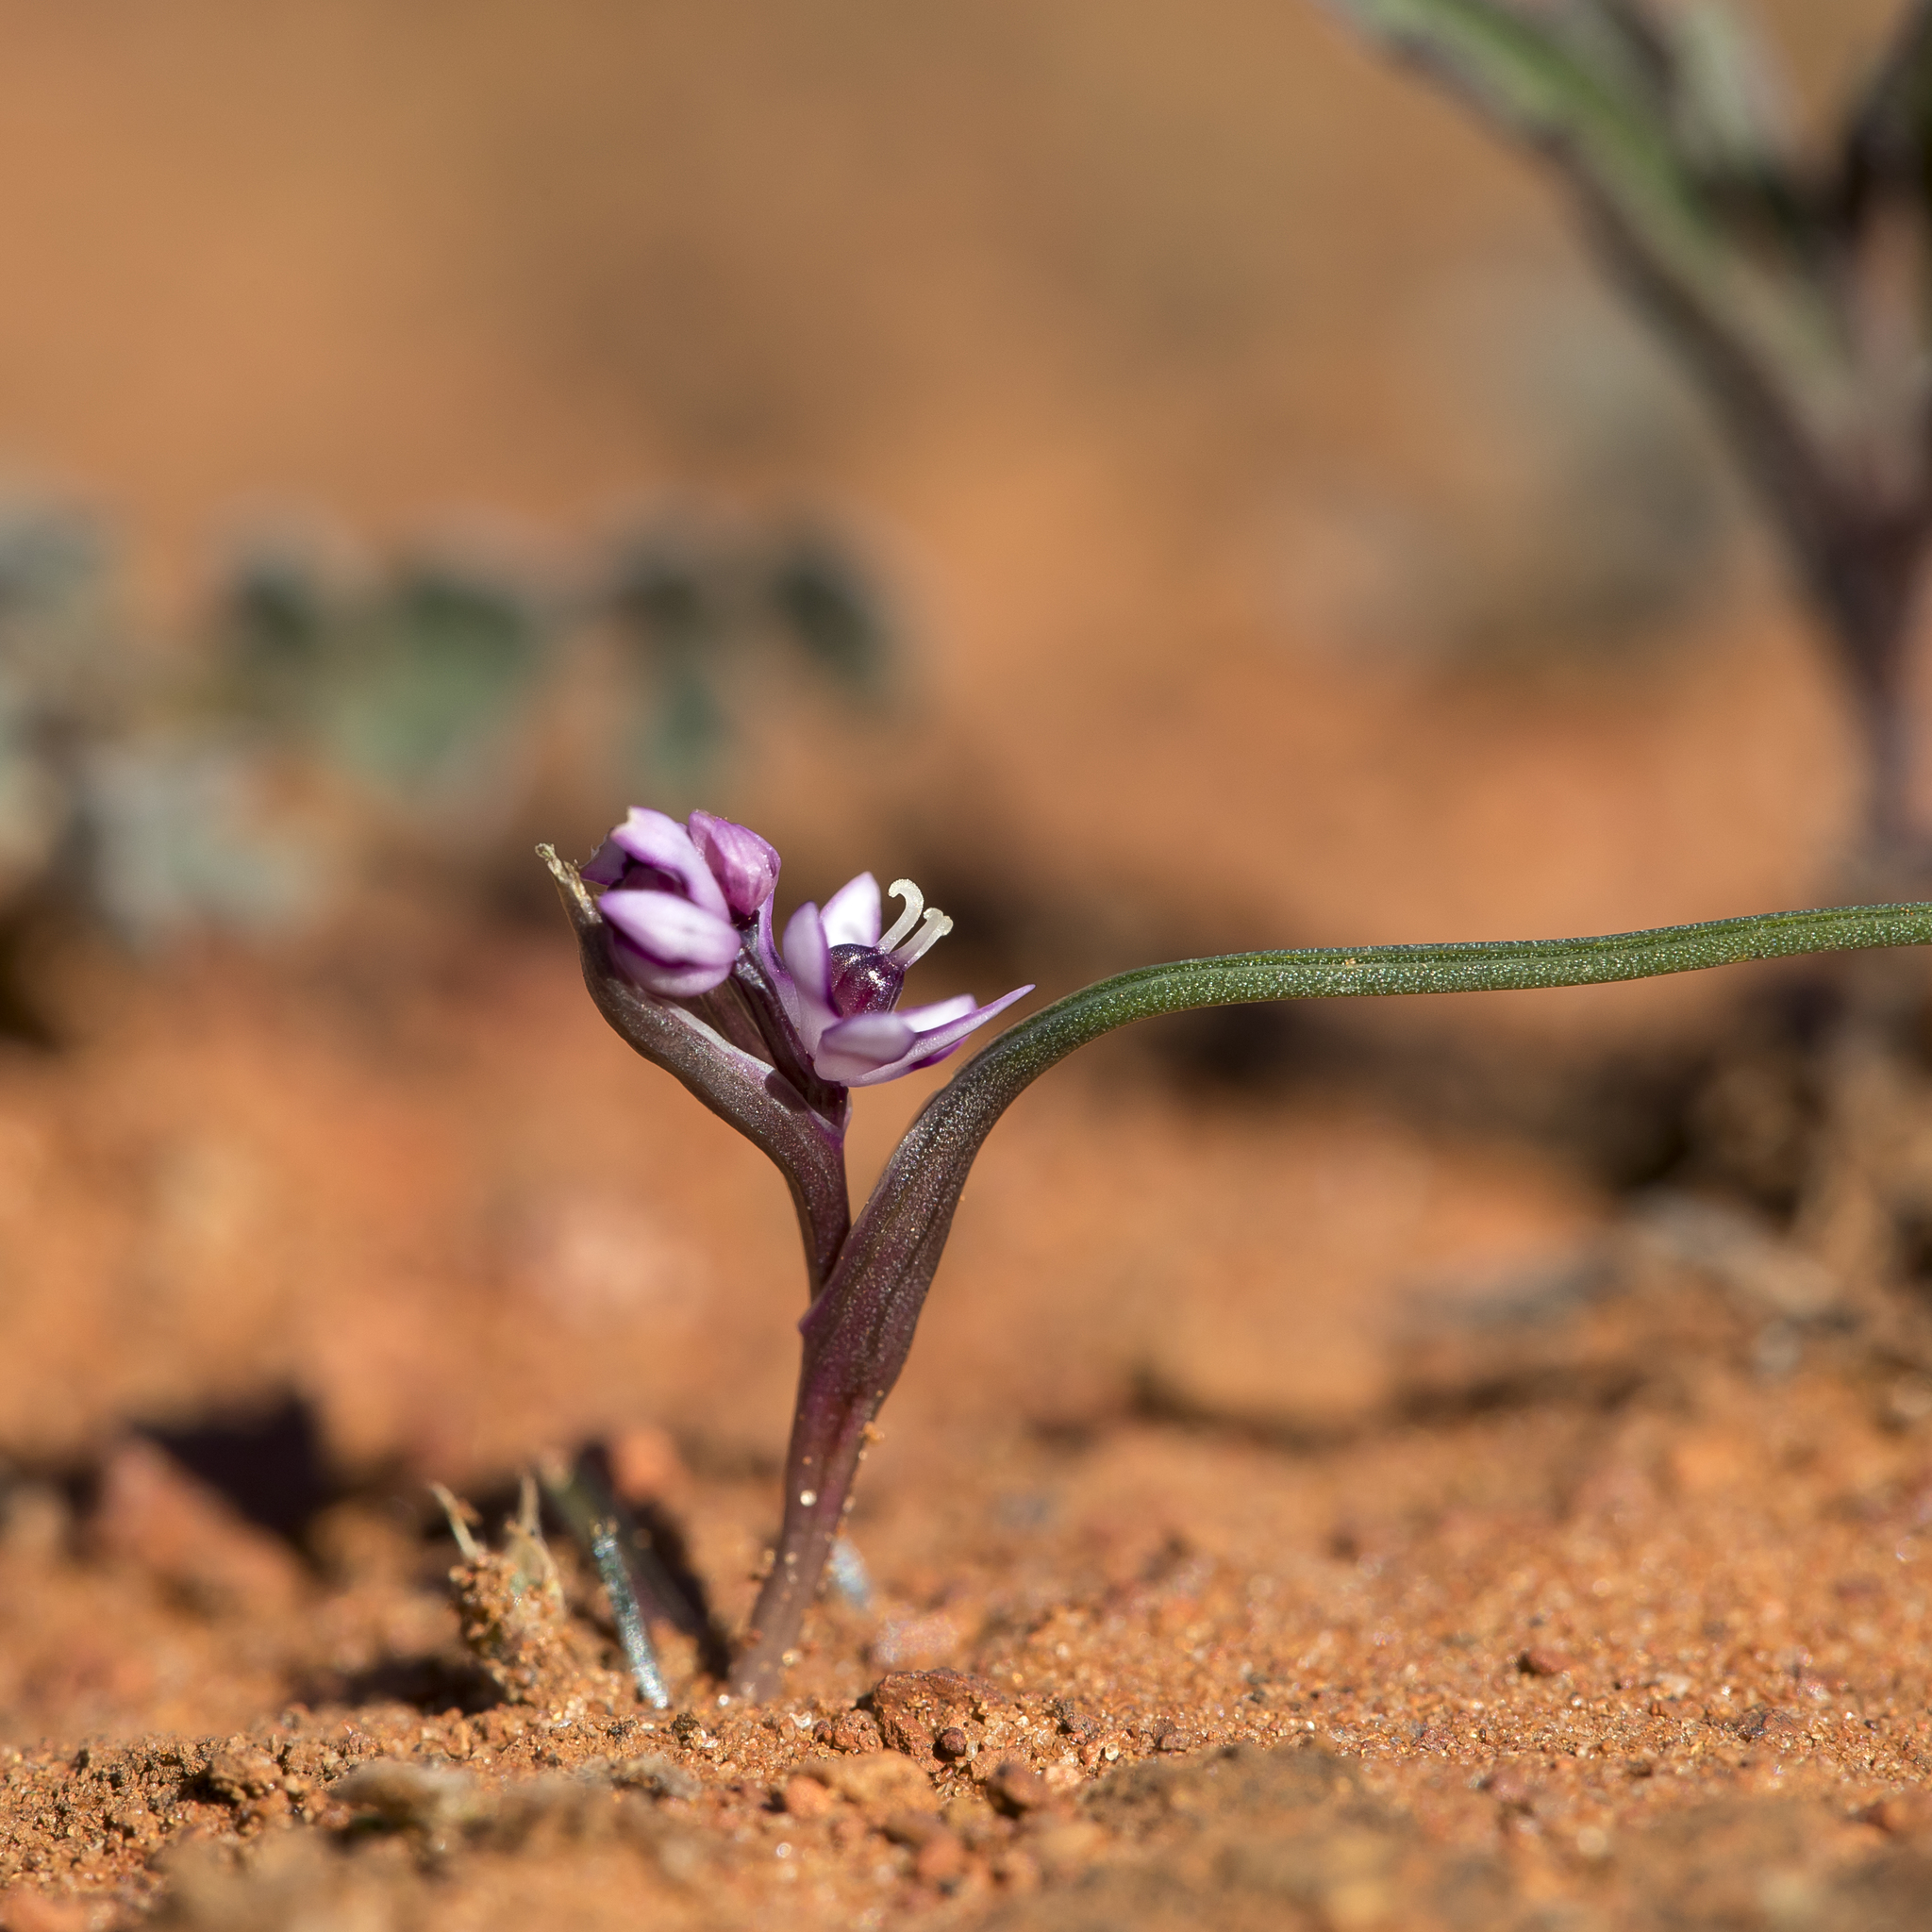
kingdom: Plantae
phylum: Tracheophyta
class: Liliopsida
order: Liliales
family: Colchicaceae
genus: Wurmbea
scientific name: Wurmbea dioica
